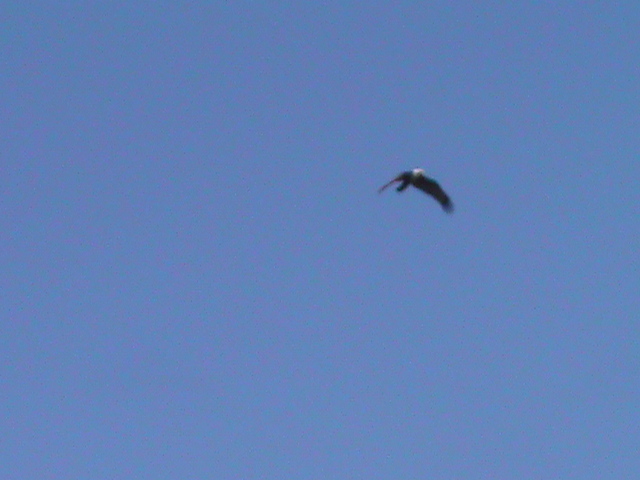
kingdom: Animalia
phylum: Chordata
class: Aves
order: Accipitriformes
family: Accipitridae
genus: Haliastur
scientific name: Haliastur indus
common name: Brahminy kite
